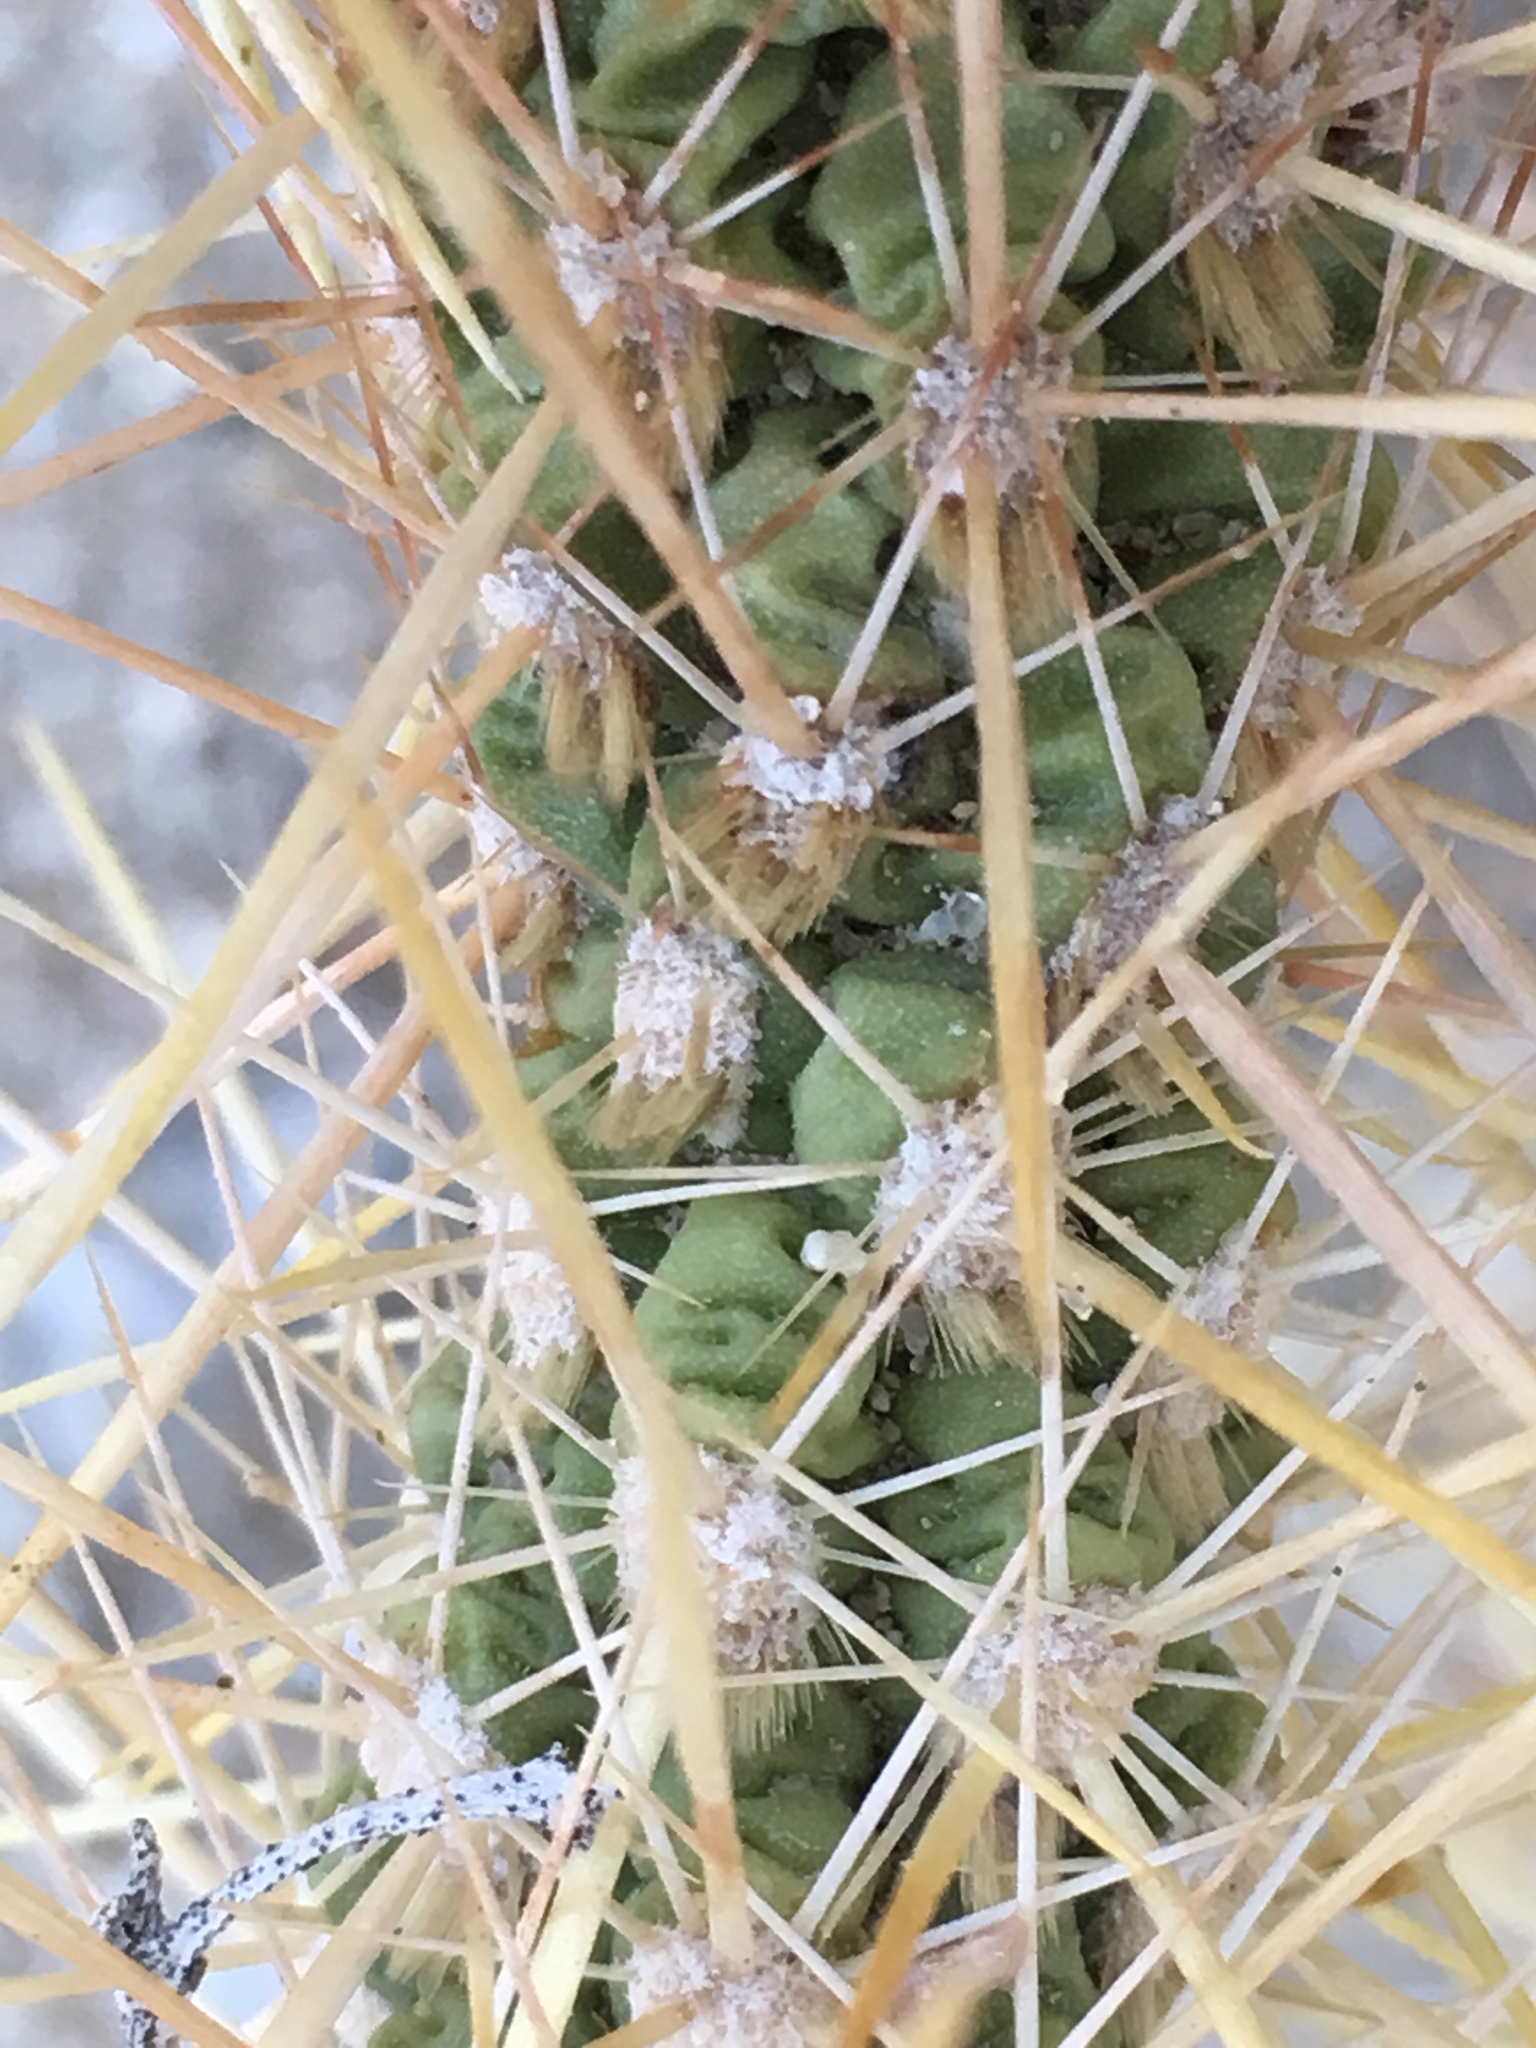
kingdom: Plantae
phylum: Tracheophyta
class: Magnoliopsida
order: Caryophyllales
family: Cactaceae
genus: Cylindropuntia
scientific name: Cylindropuntia echinocarpa
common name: Ground cholla
